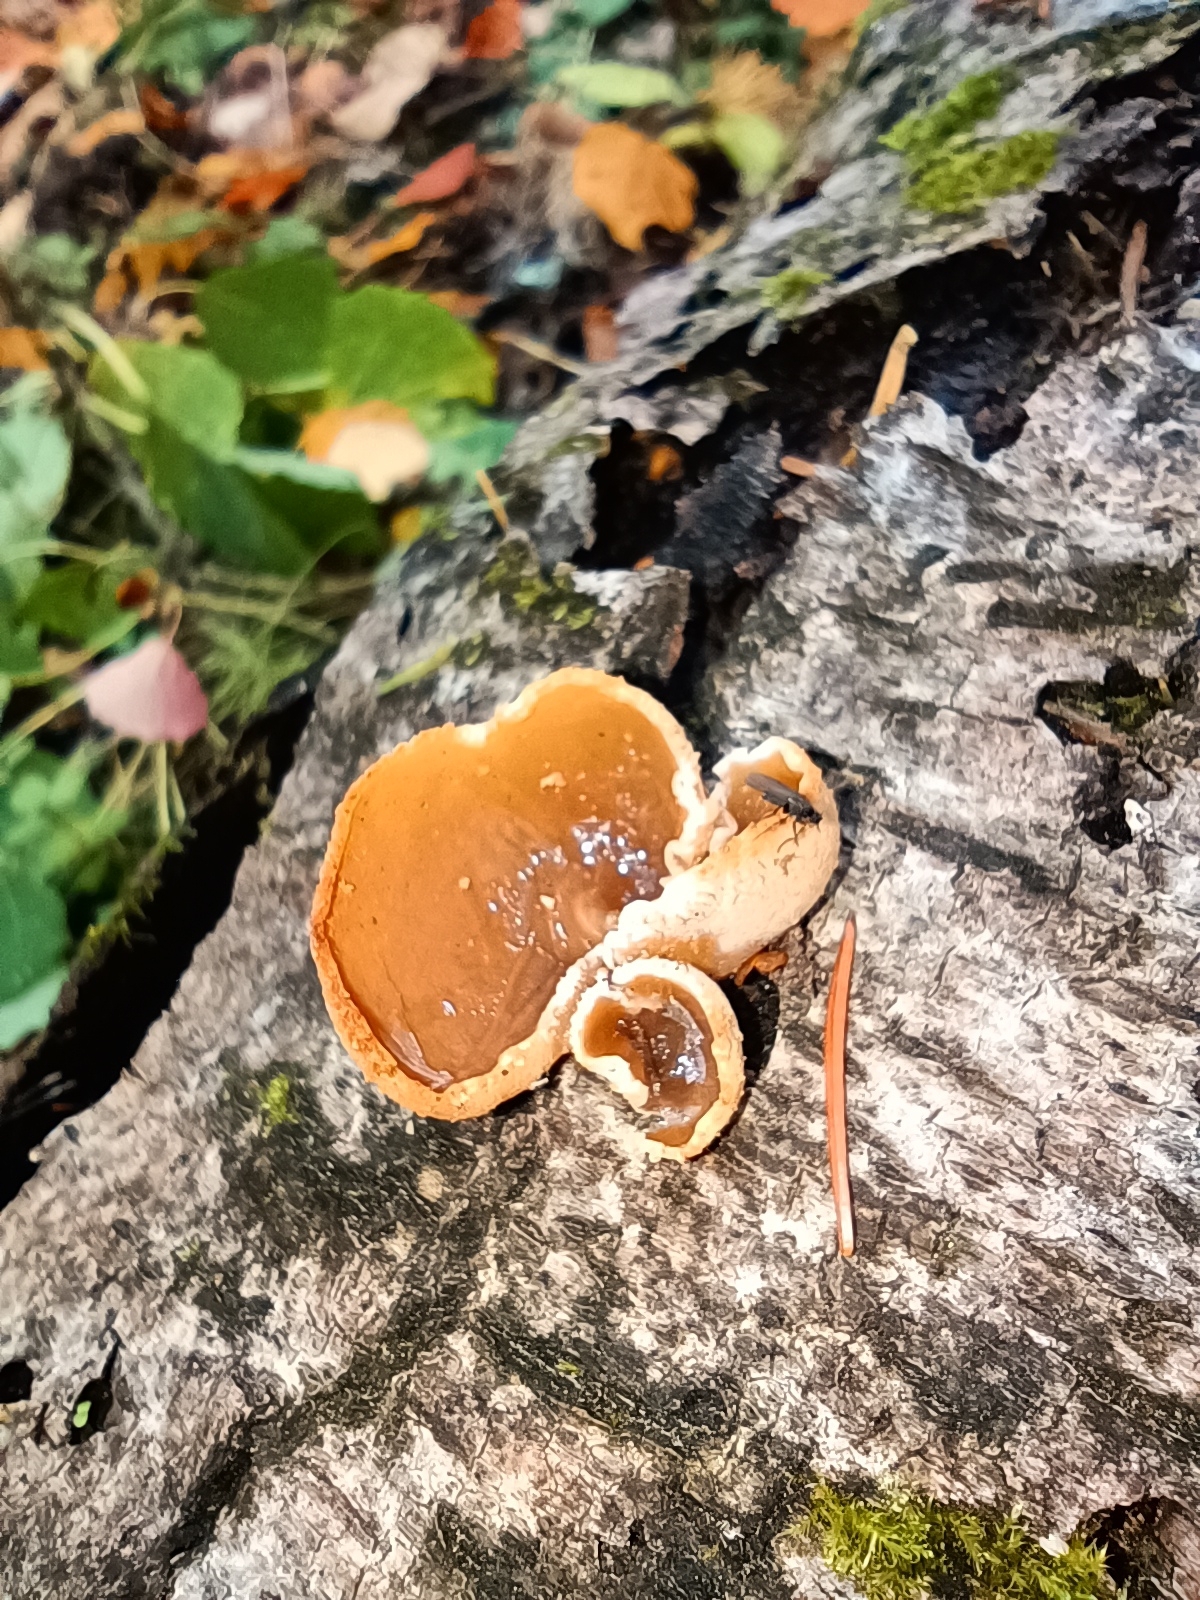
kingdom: Fungi
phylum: Ascomycota
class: Pezizomycetes
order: Pezizales
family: Pezizaceae
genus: Peziza
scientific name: Peziza
